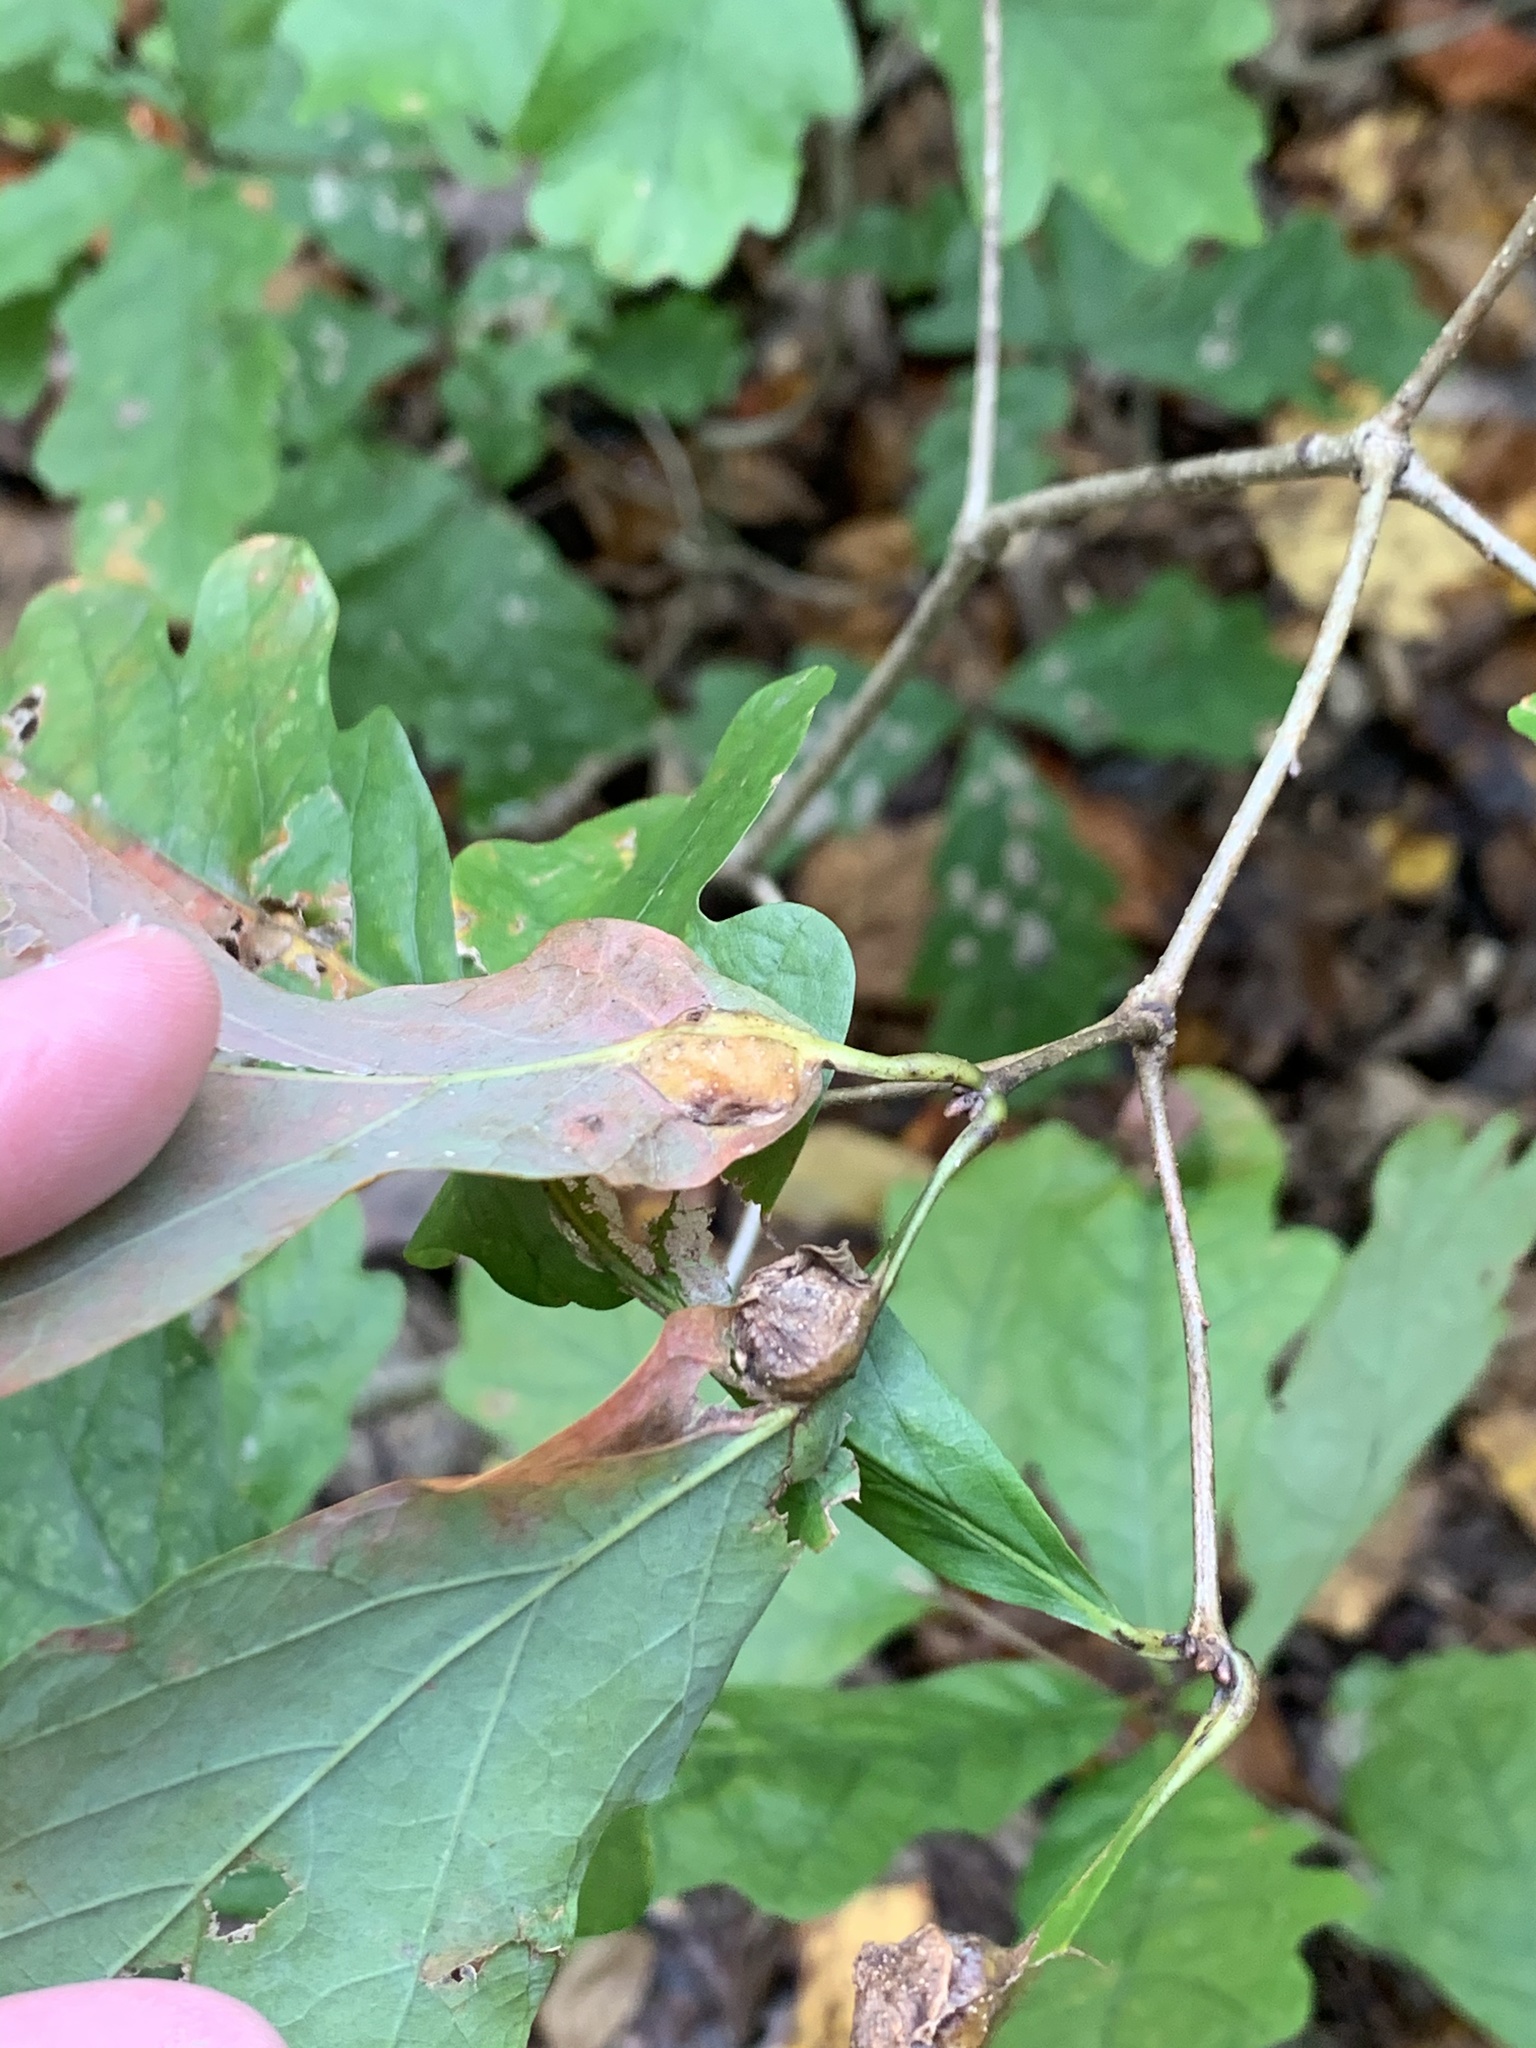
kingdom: Animalia
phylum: Arthropoda
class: Insecta
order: Hymenoptera
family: Cynipidae
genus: Andricus
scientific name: Andricus
